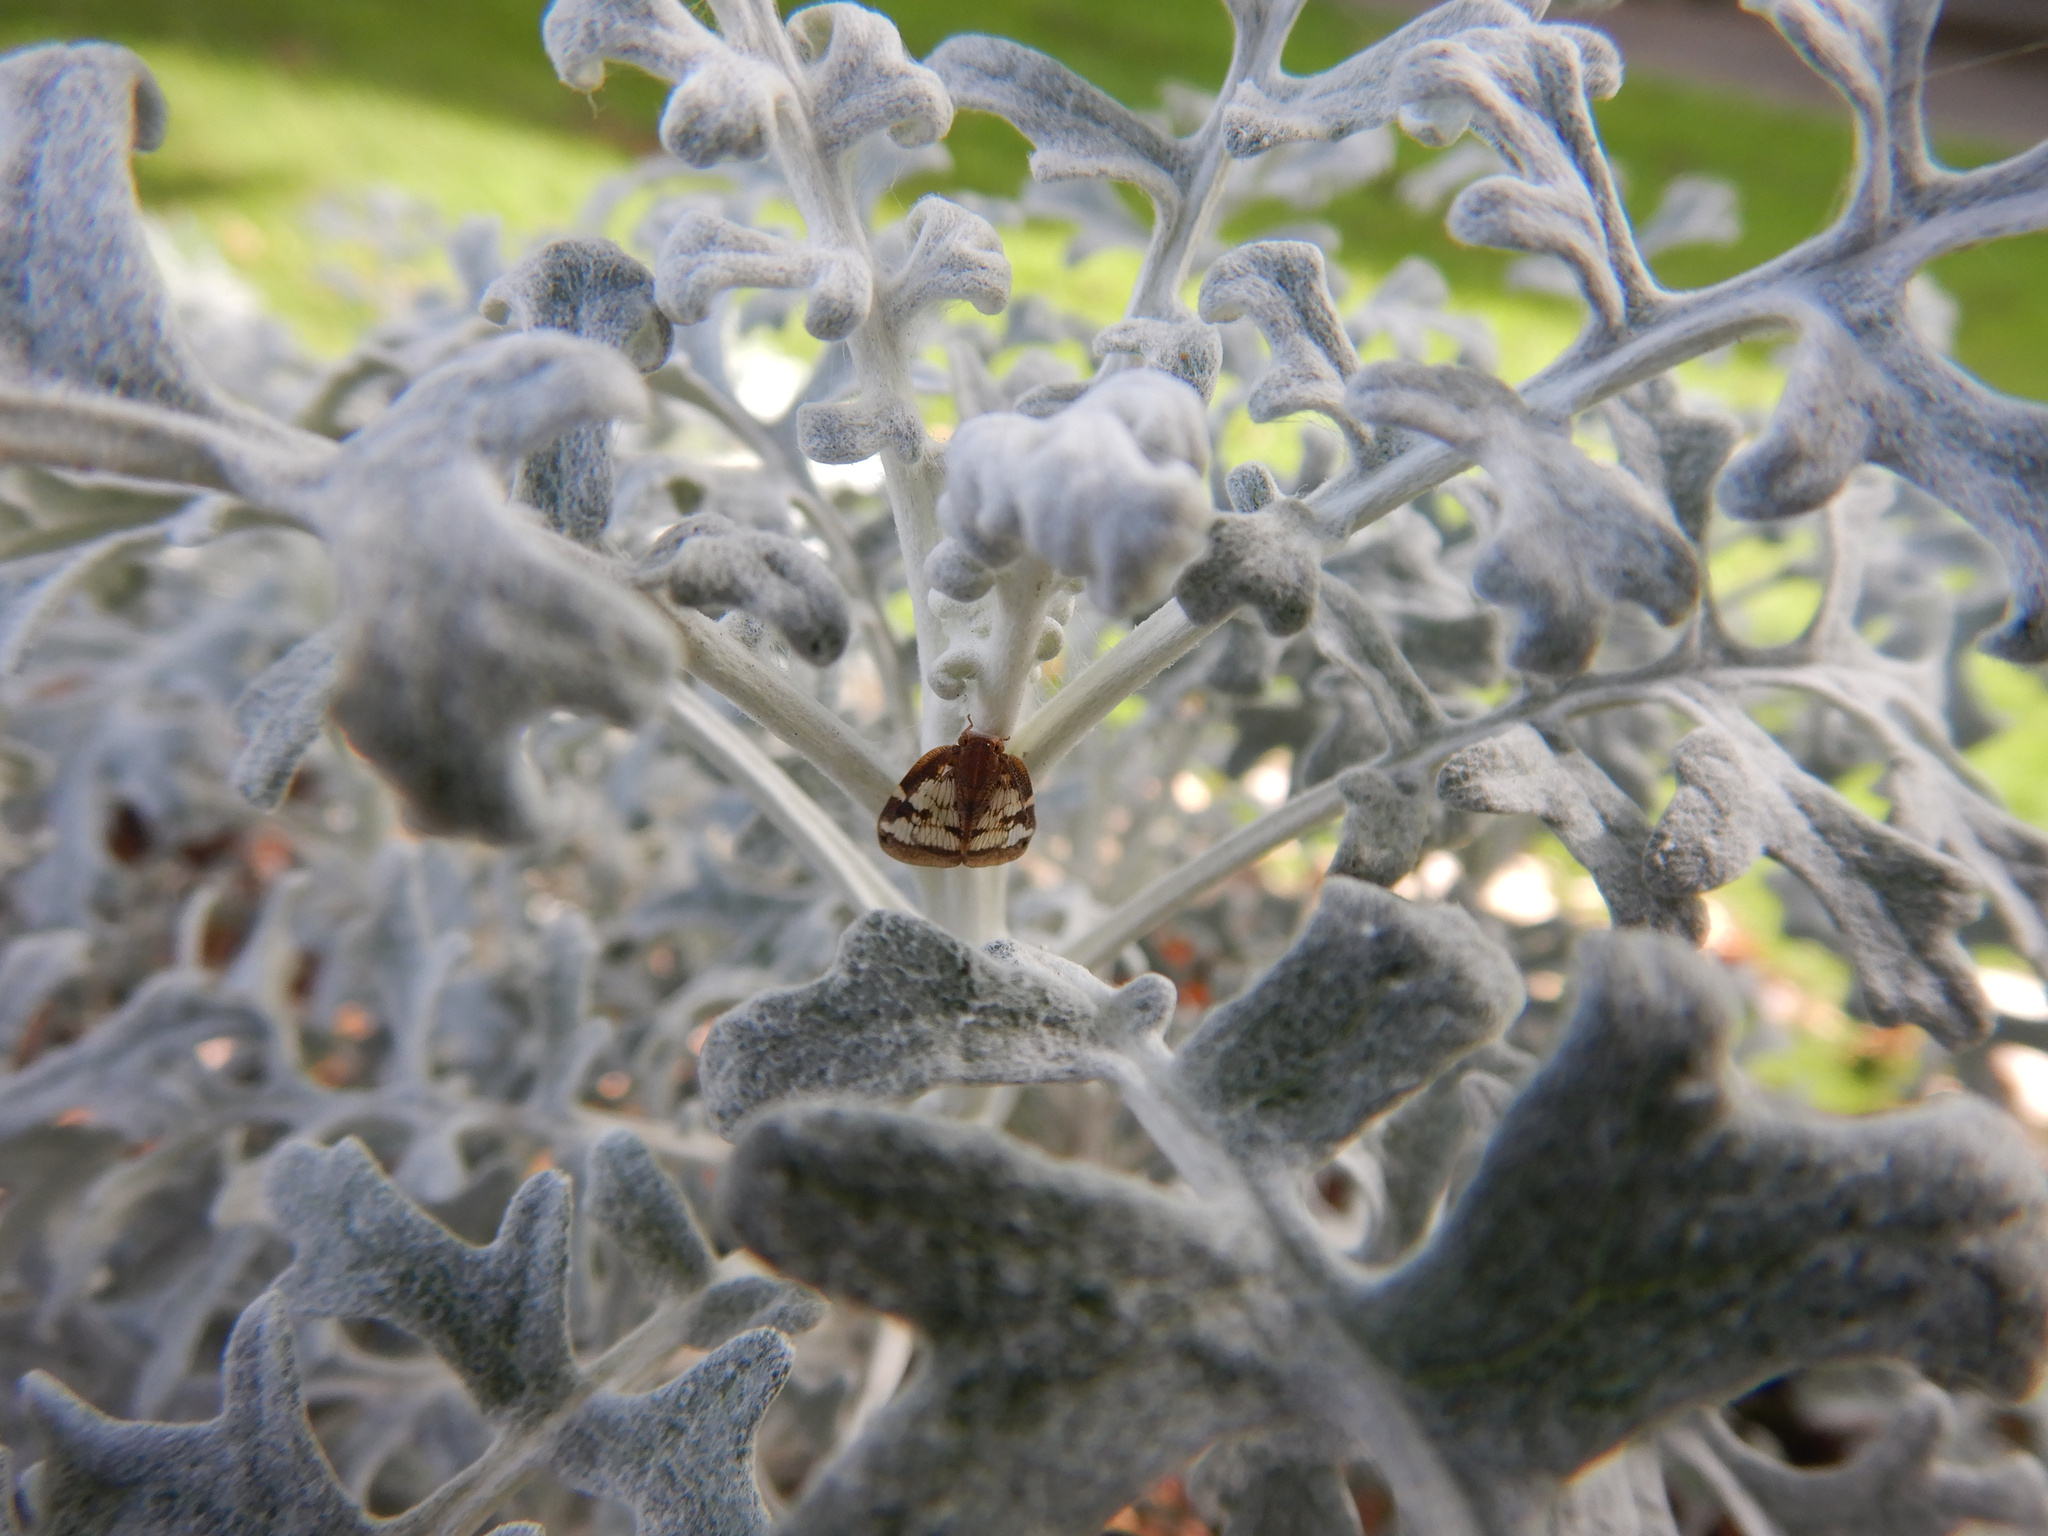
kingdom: Animalia
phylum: Arthropoda
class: Insecta
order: Hemiptera
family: Ricaniidae
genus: Scolypopa
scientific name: Scolypopa australis
